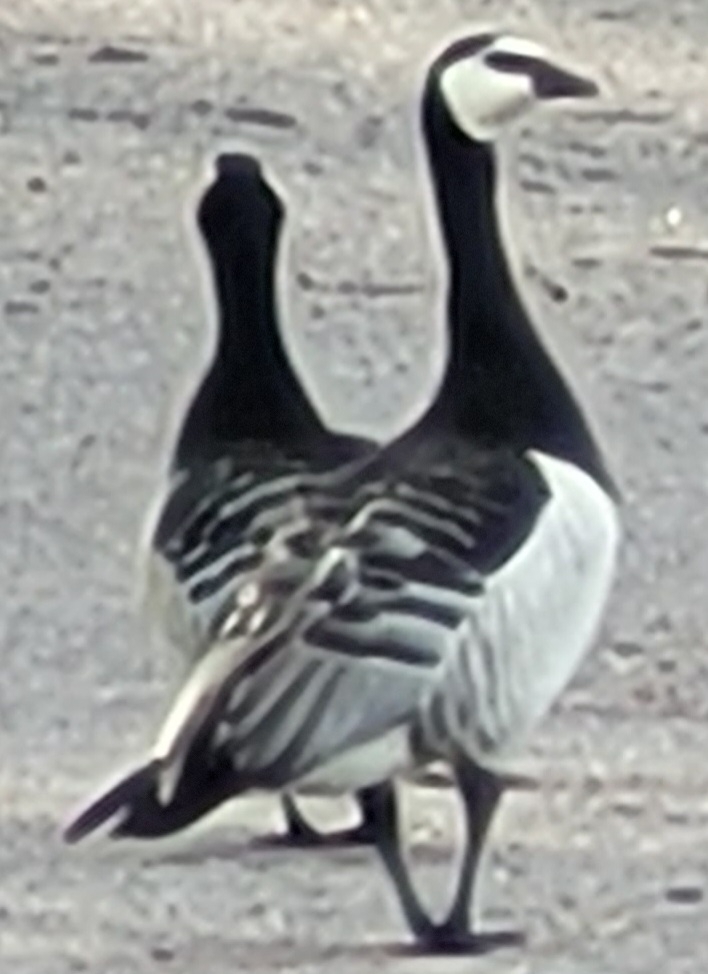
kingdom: Animalia
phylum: Chordata
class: Aves
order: Anseriformes
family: Anatidae
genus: Branta
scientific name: Branta leucopsis
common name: Barnacle goose
